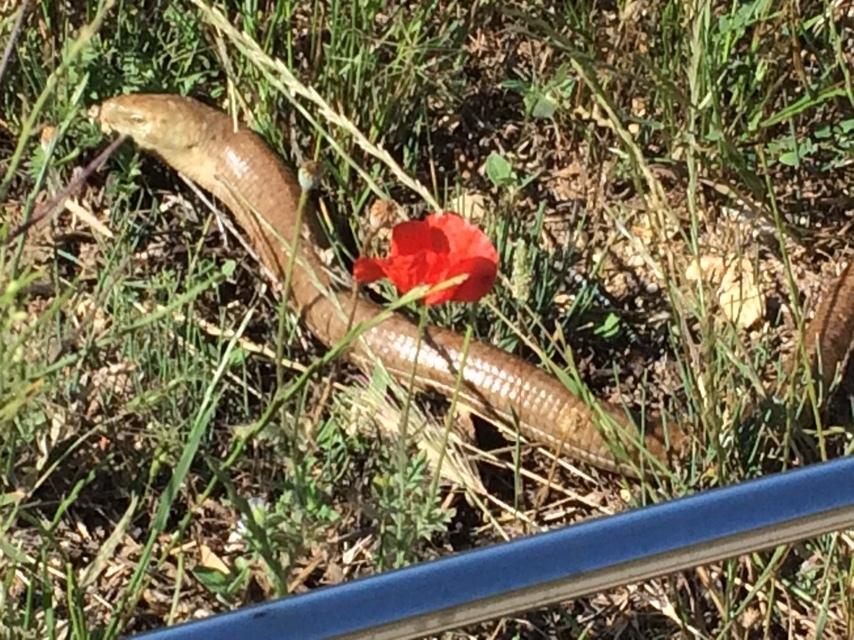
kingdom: Animalia
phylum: Chordata
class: Squamata
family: Anguidae
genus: Pseudopus
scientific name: Pseudopus apodus
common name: European glass lizard
